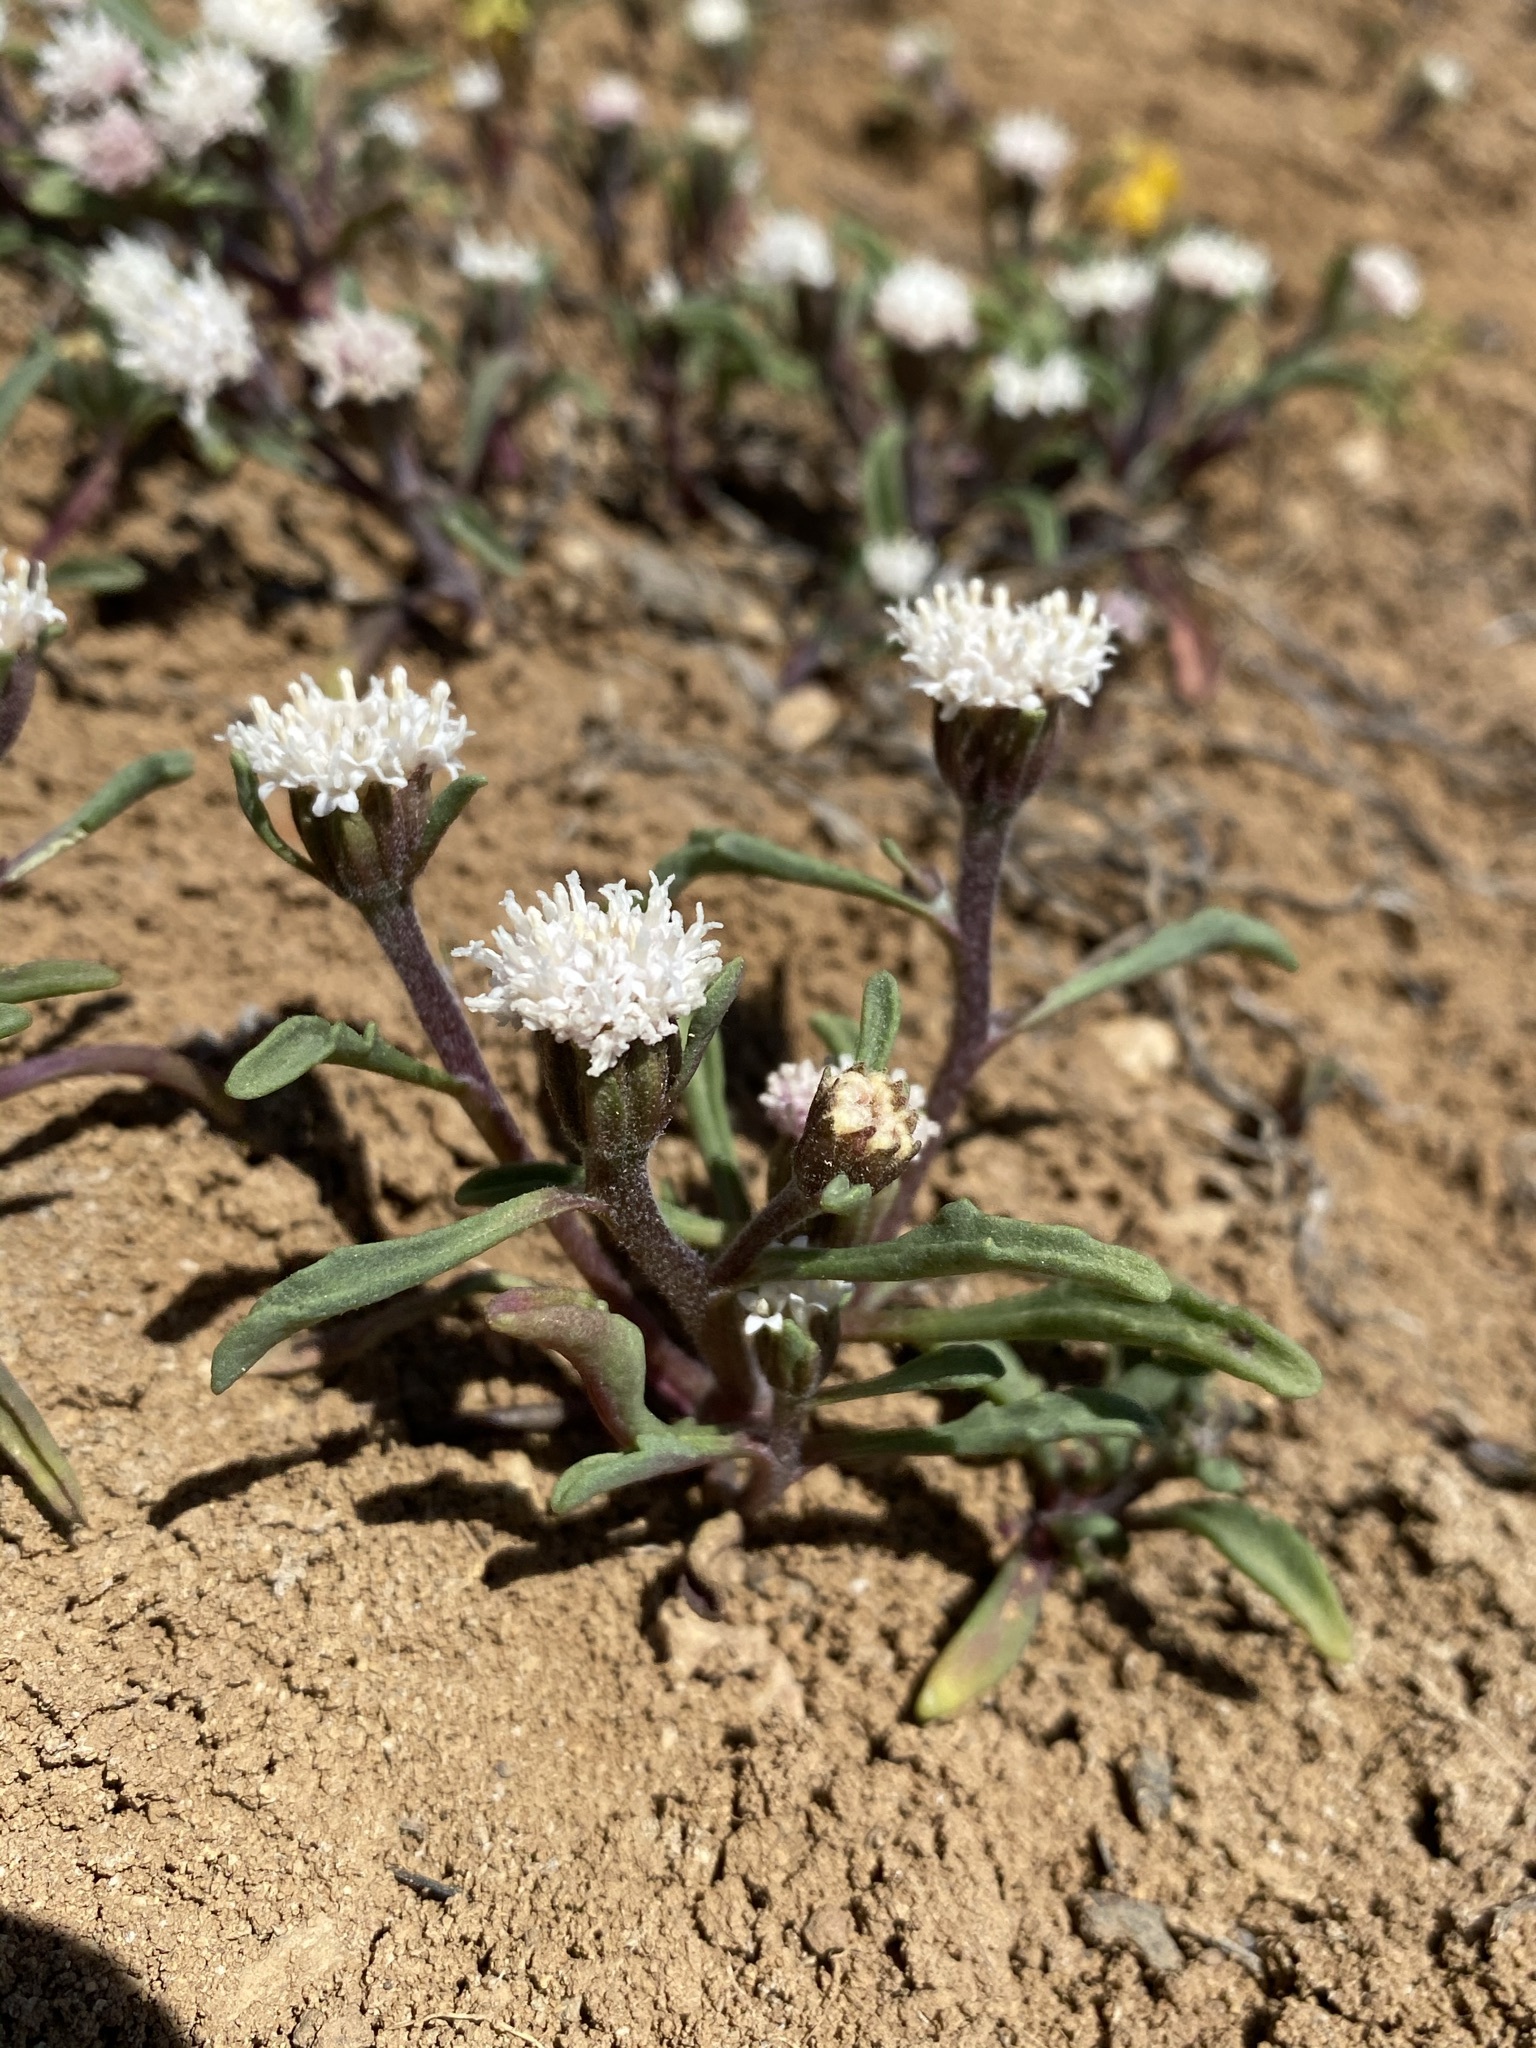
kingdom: Plantae
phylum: Tracheophyta
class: Magnoliopsida
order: Asterales
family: Asteraceae
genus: Chaenactis
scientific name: Chaenactis cusickii
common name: Cusick's pincushion
